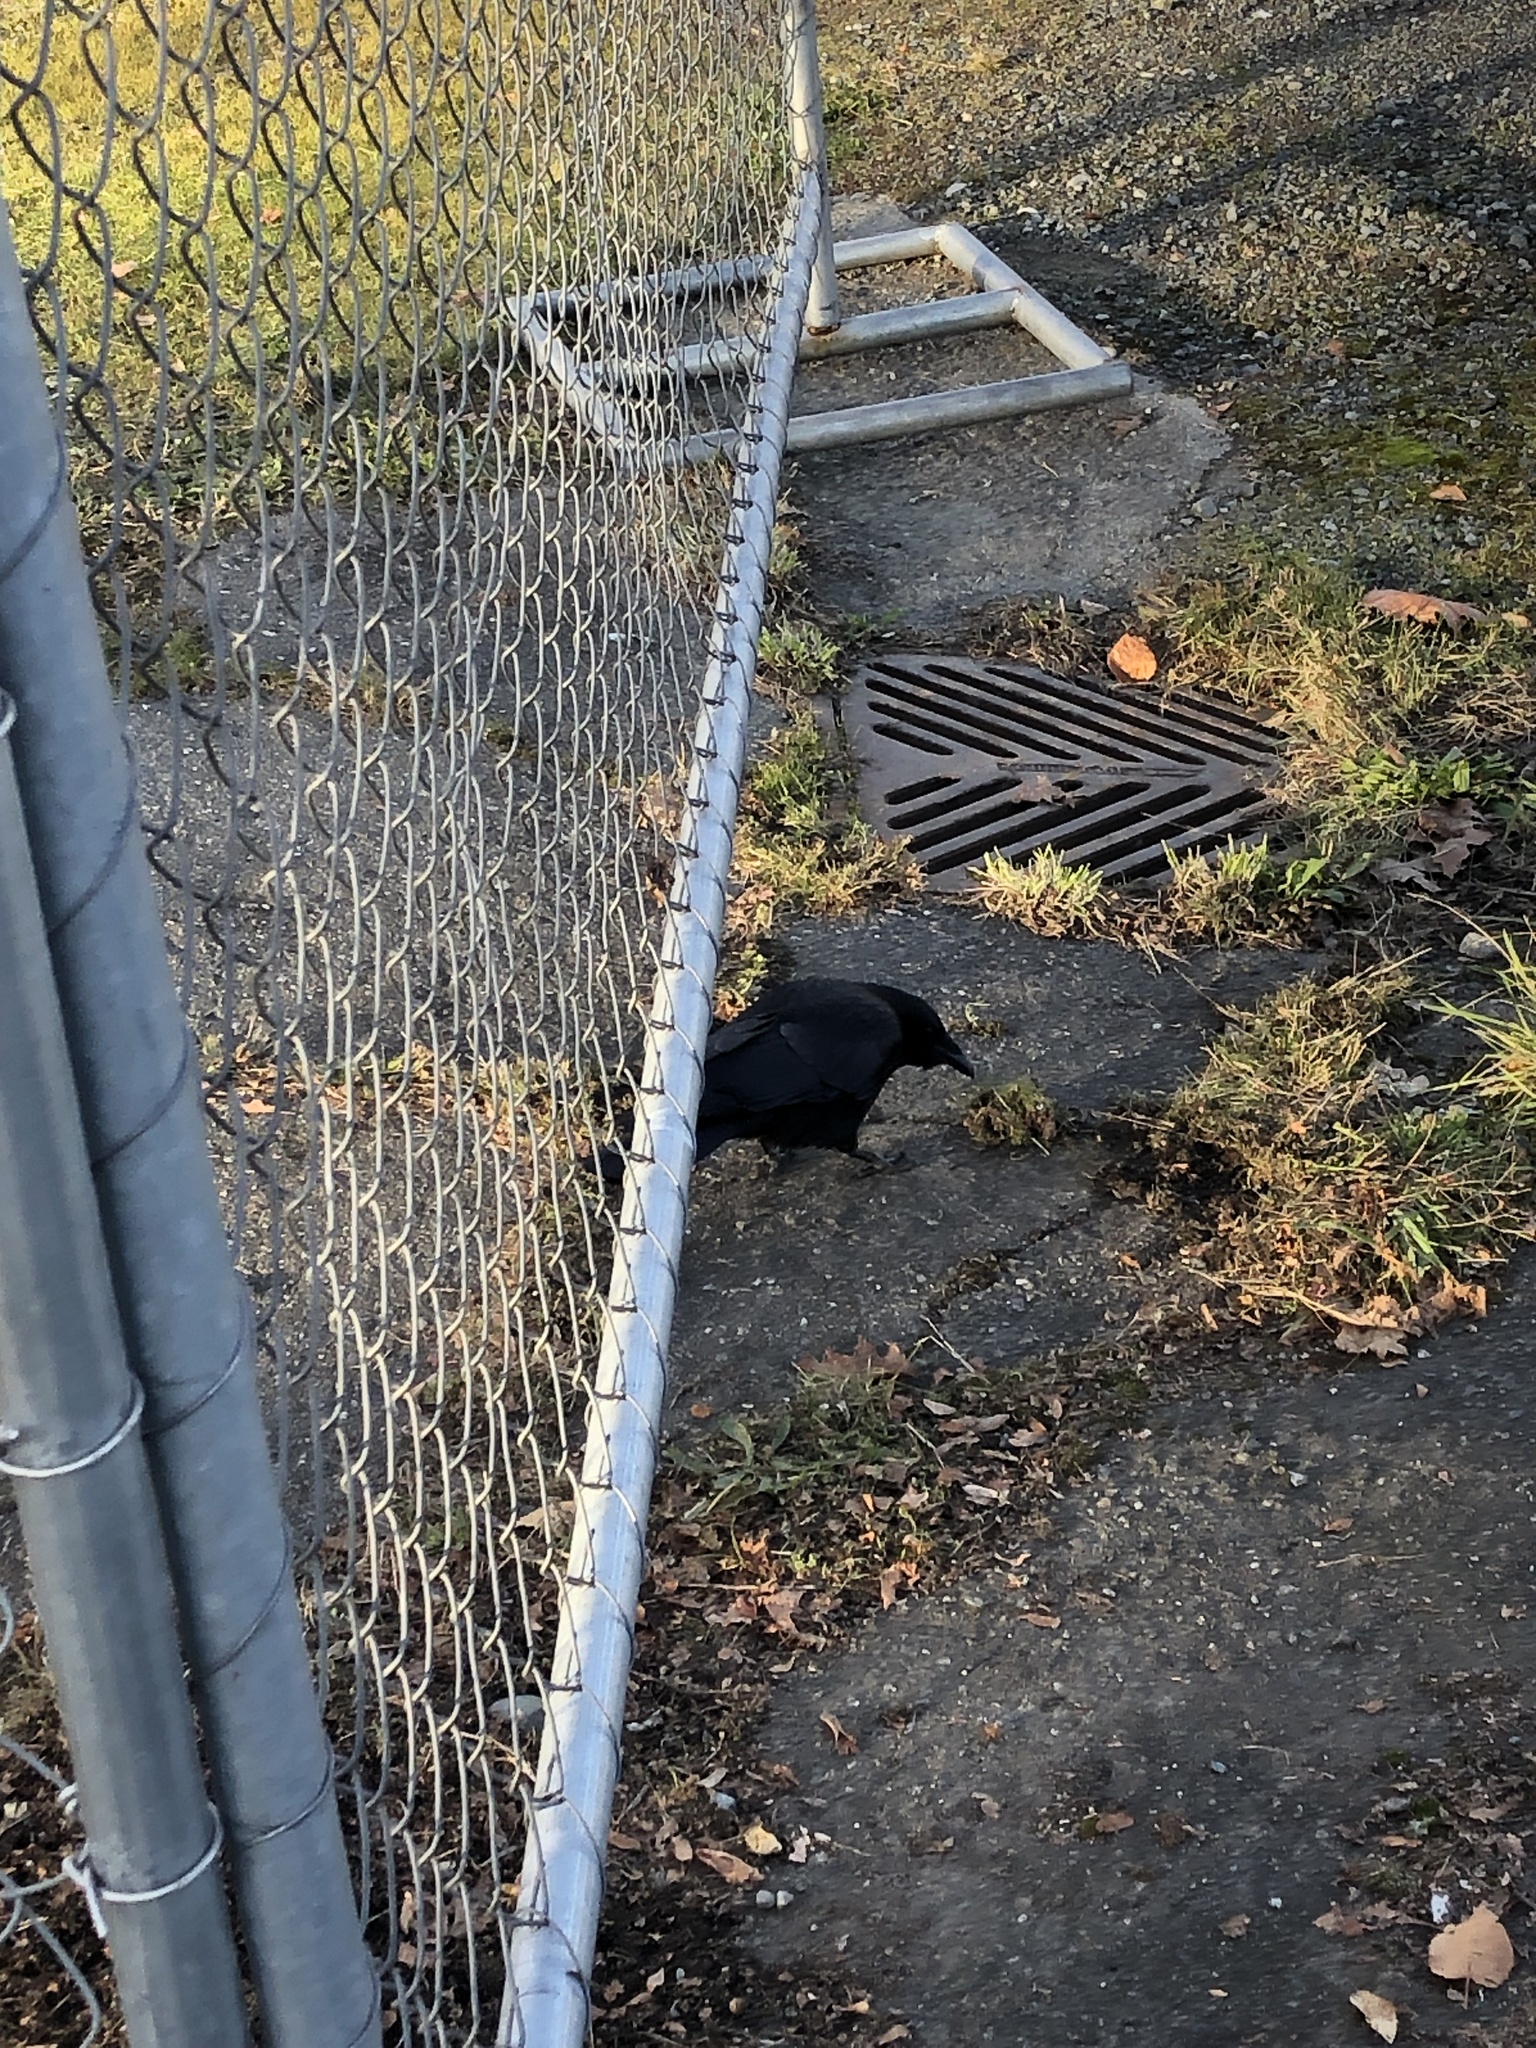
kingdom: Animalia
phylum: Chordata
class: Aves
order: Passeriformes
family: Corvidae
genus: Corvus
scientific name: Corvus brachyrhynchos
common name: American crow
